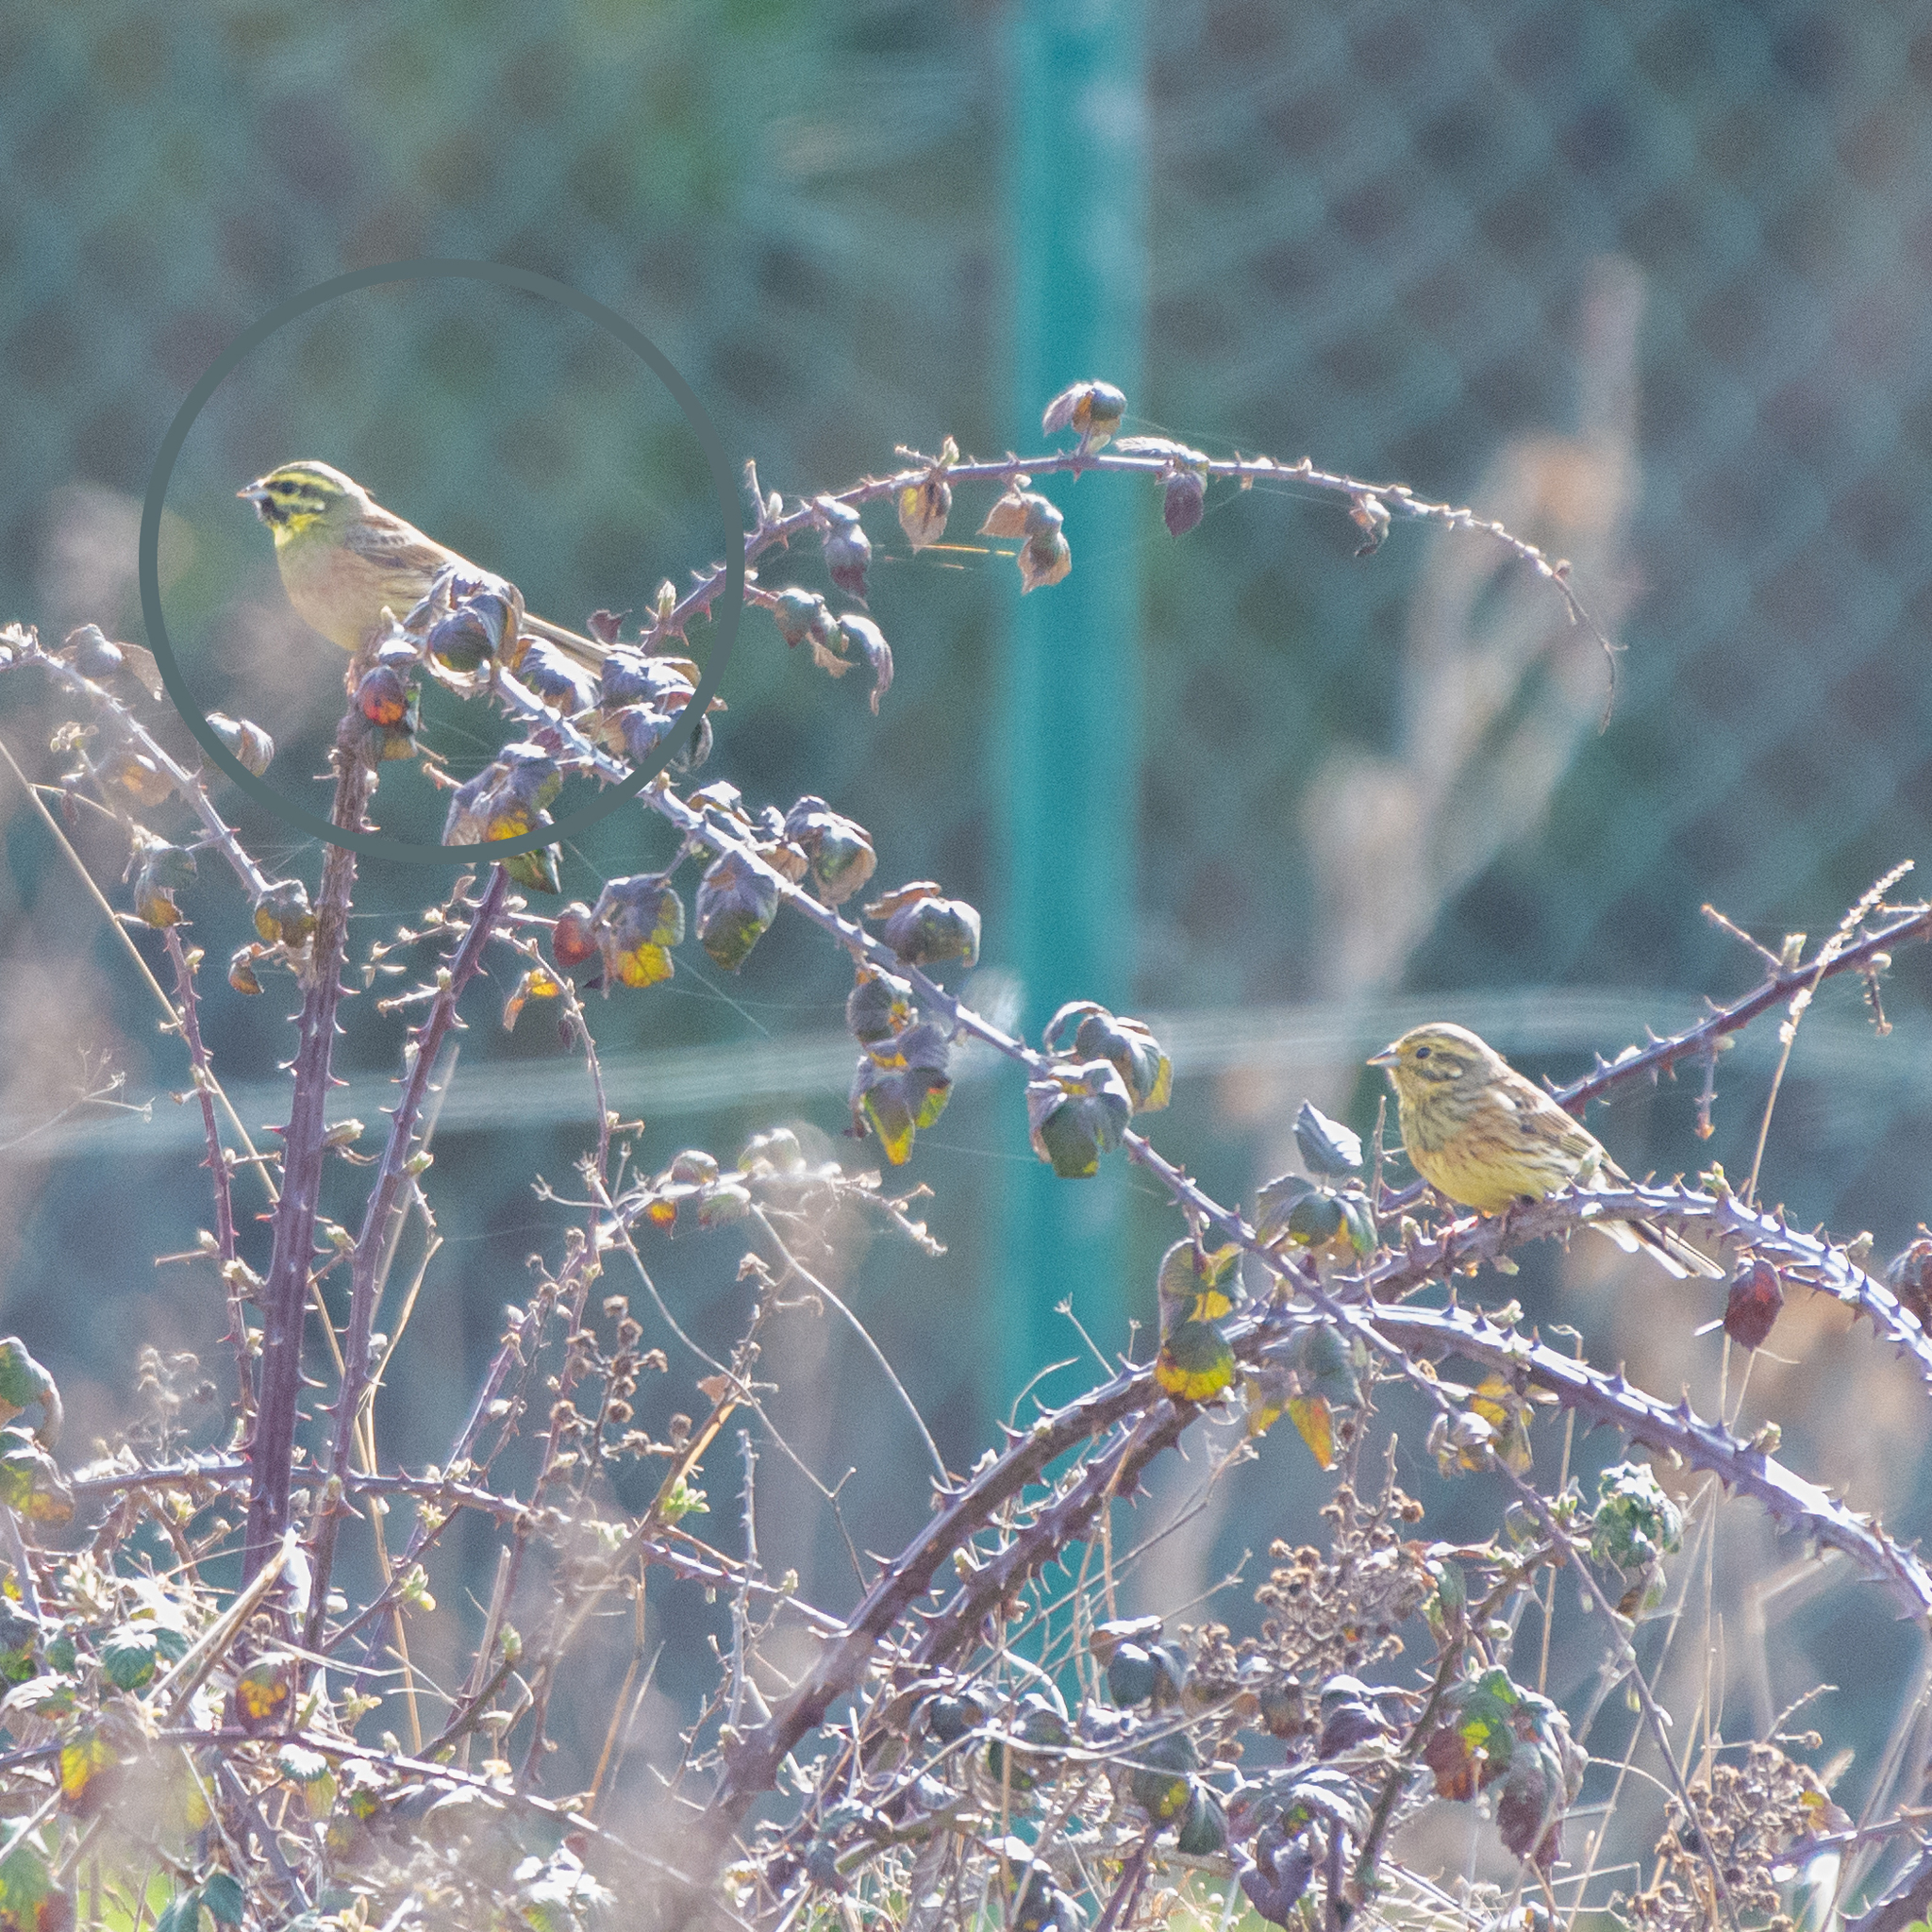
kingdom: Animalia
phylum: Chordata
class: Aves
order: Passeriformes
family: Emberizidae
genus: Emberiza
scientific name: Emberiza cirlus
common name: Cirl bunting
